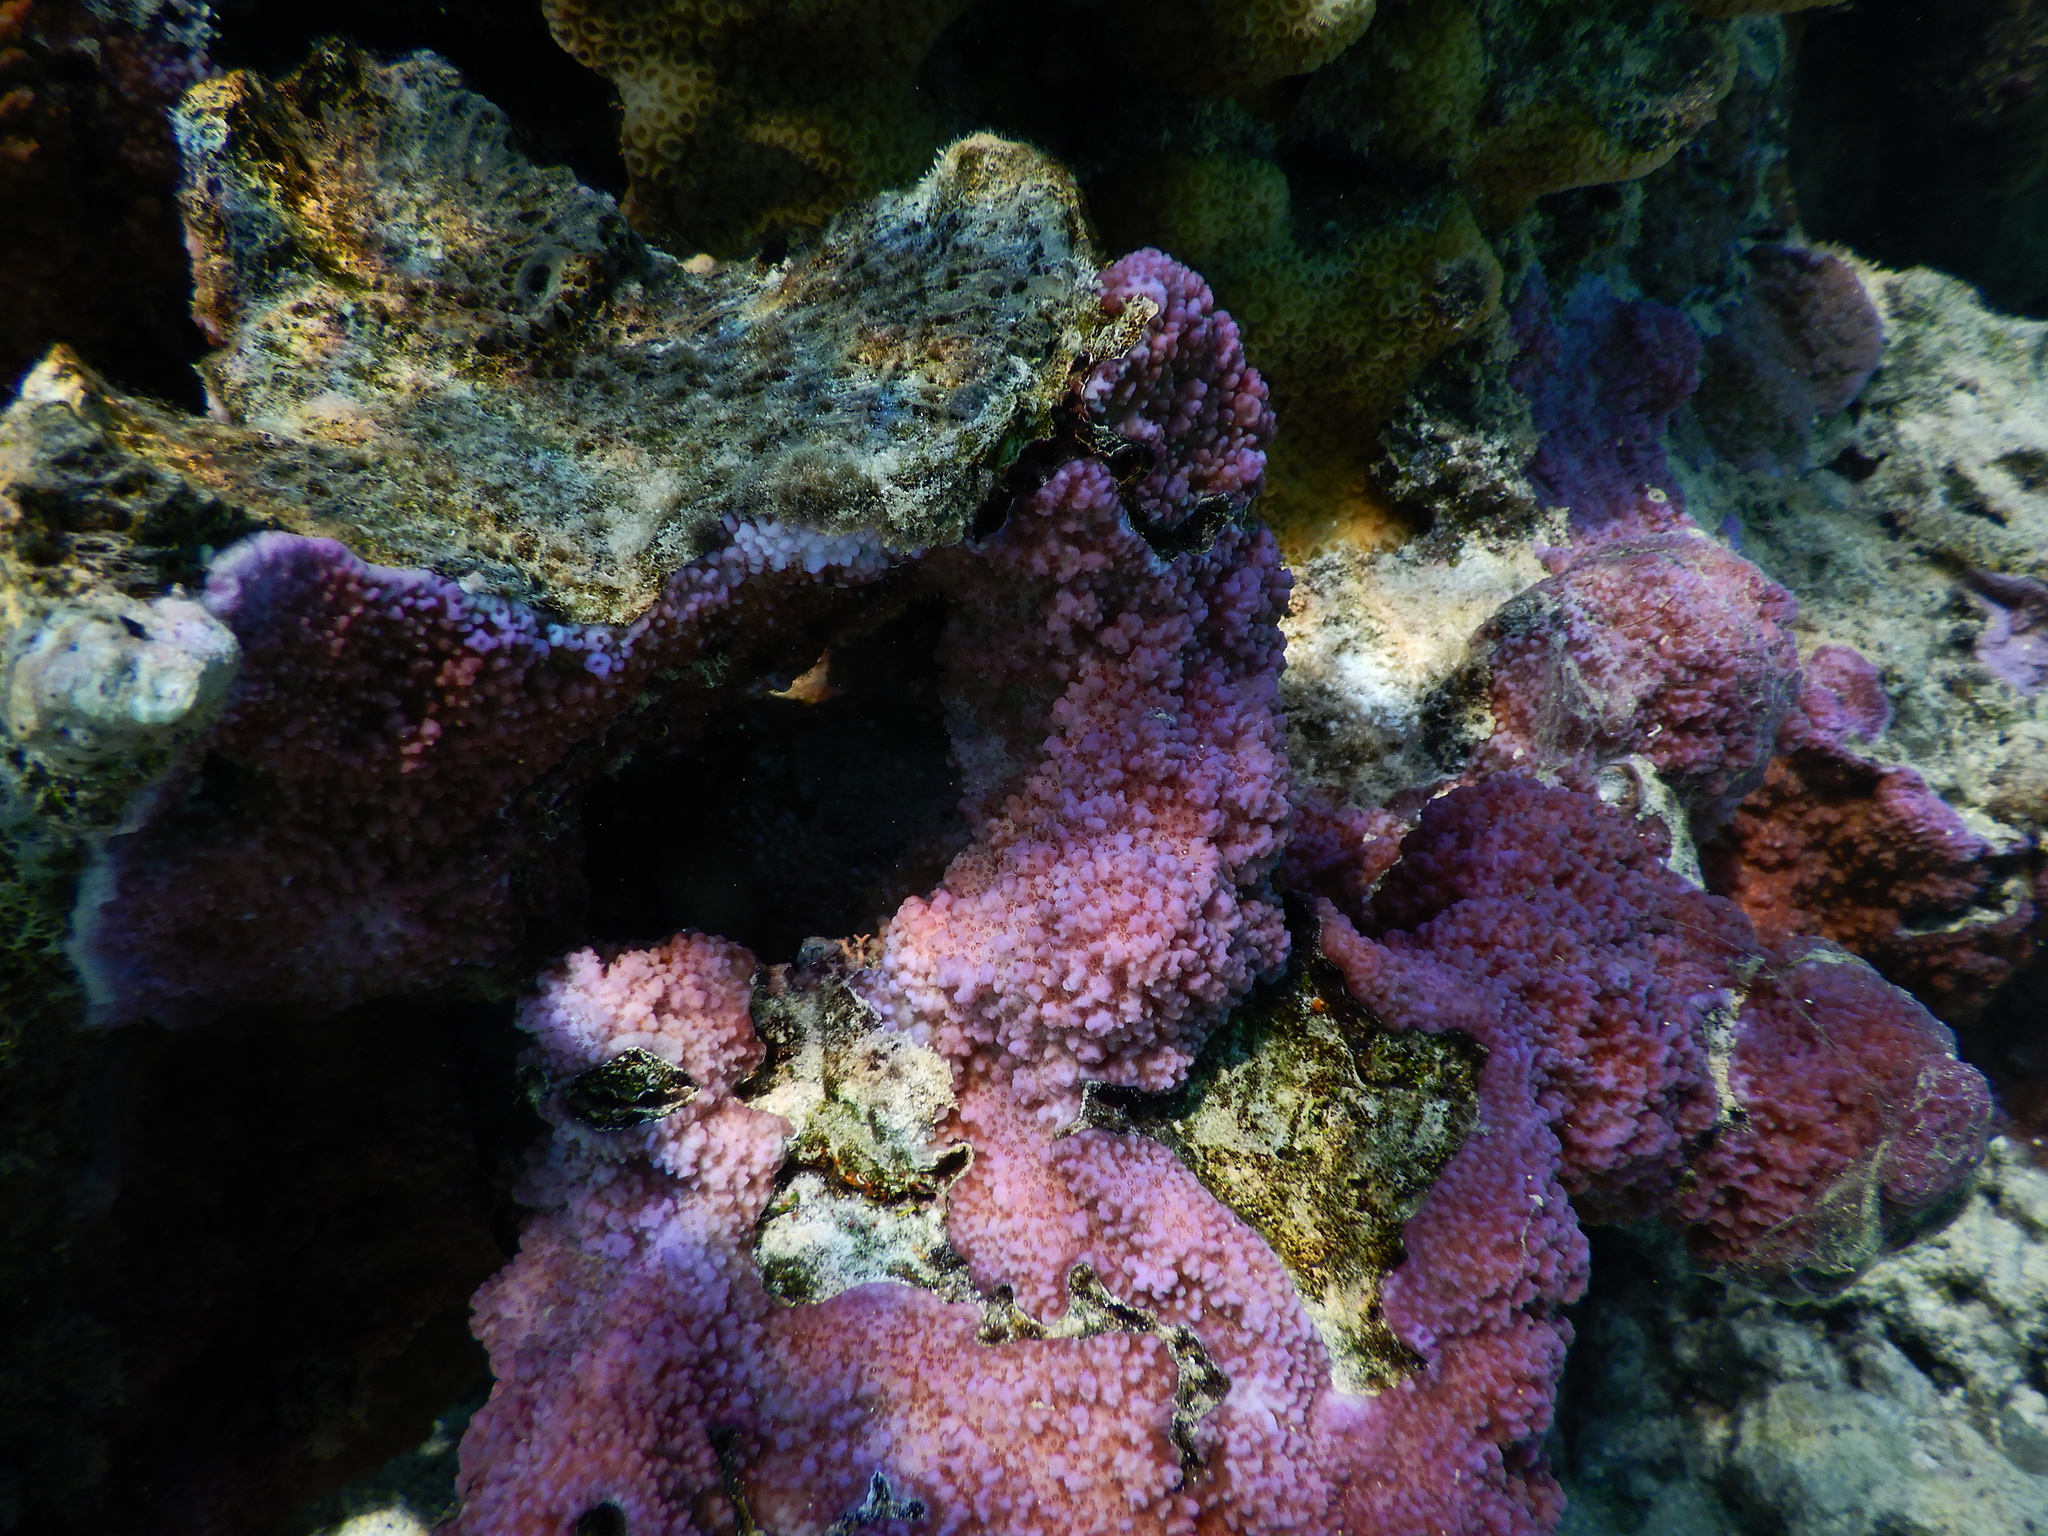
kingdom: Animalia
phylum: Cnidaria
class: Anthozoa
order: Scleractinia
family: Acroporidae
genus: Montipora
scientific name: Montipora flabellata
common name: Pore coral
